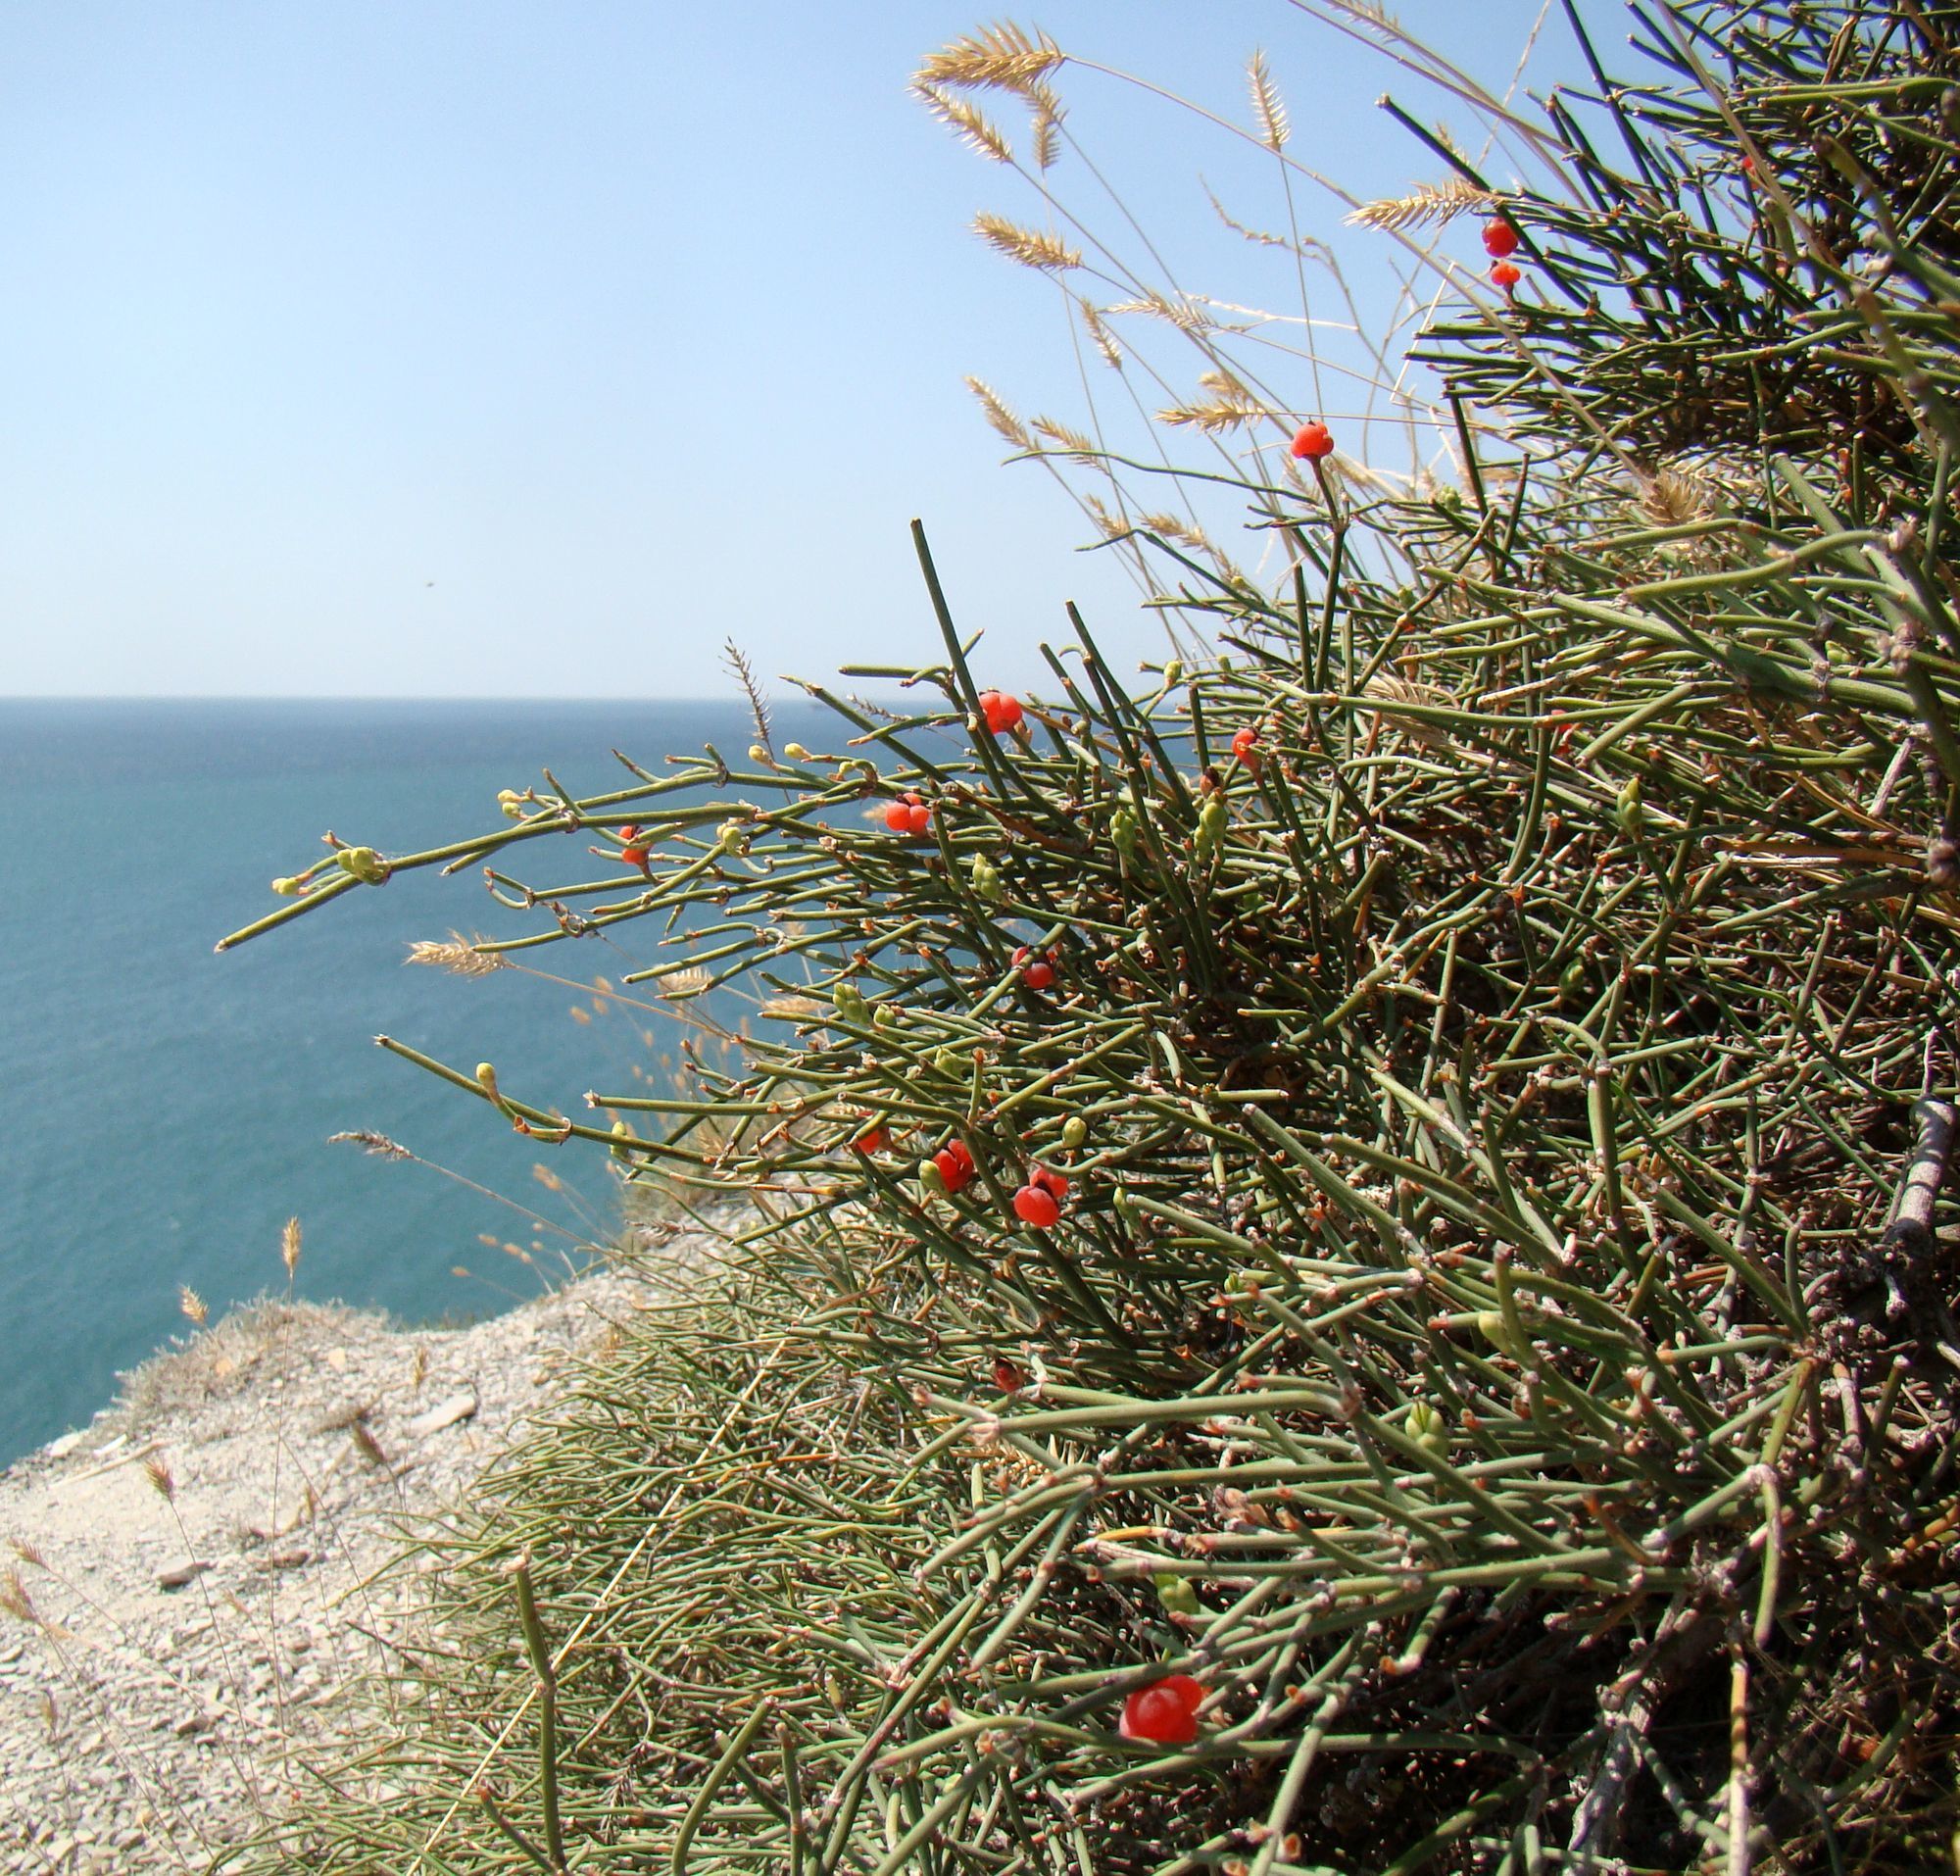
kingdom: Plantae
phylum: Tracheophyta
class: Gnetopsida
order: Ephedrales
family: Ephedraceae
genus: Ephedra
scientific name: Ephedra distachya
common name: Sea grape
